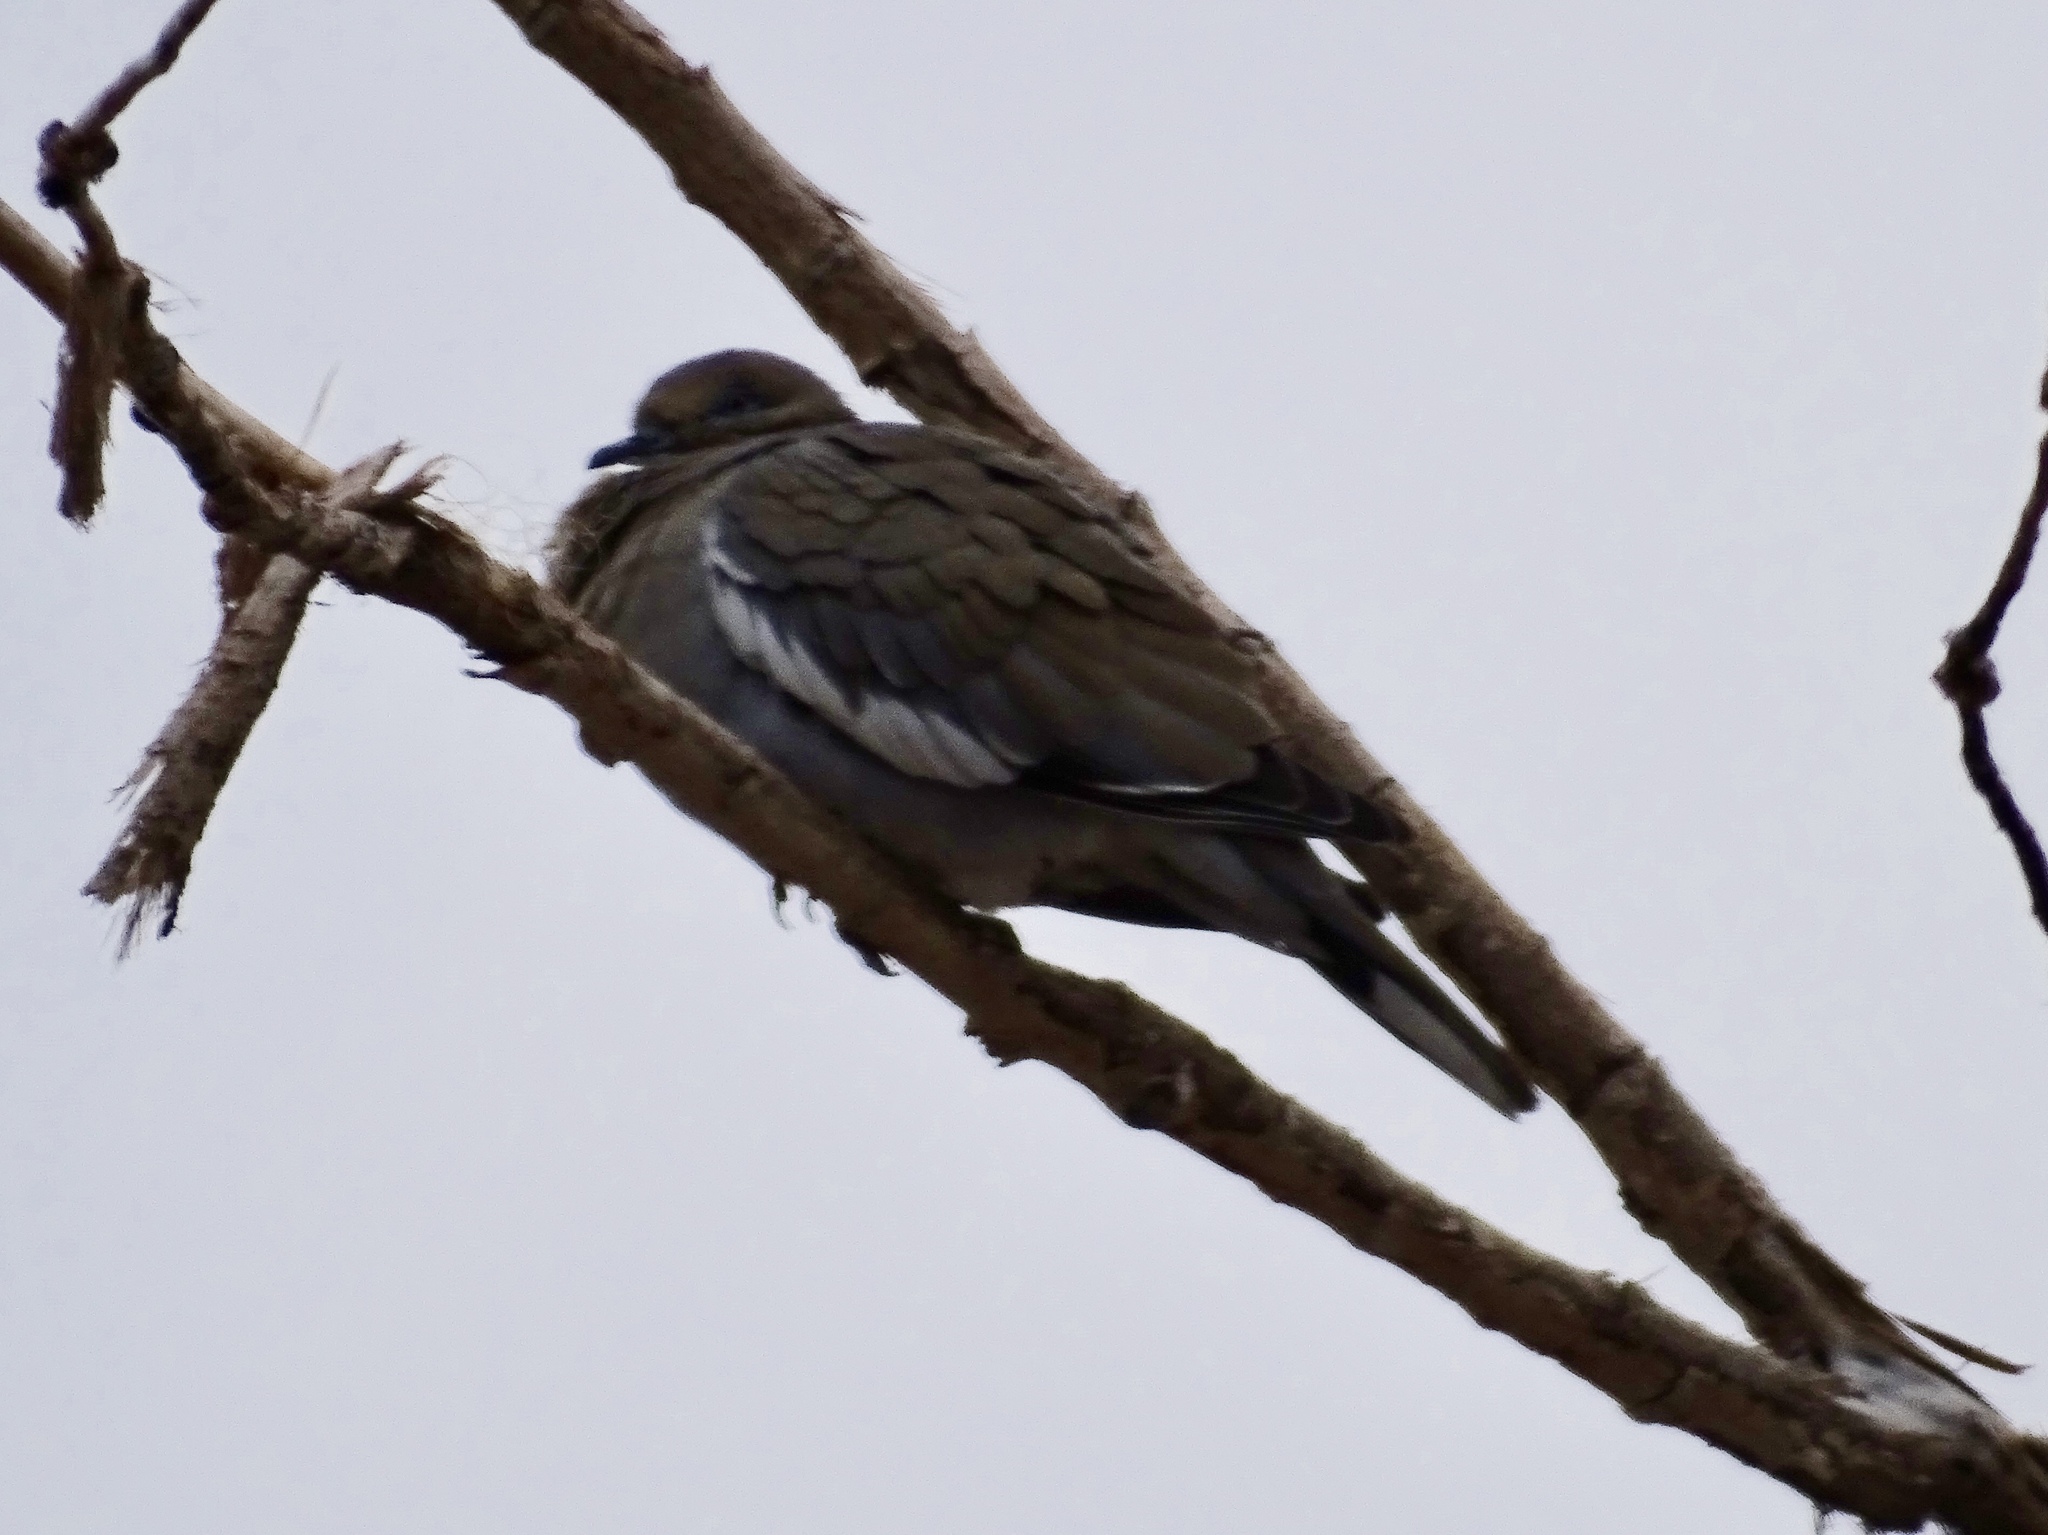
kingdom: Animalia
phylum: Chordata
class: Aves
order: Columbiformes
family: Columbidae
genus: Zenaida
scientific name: Zenaida asiatica
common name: White-winged dove
